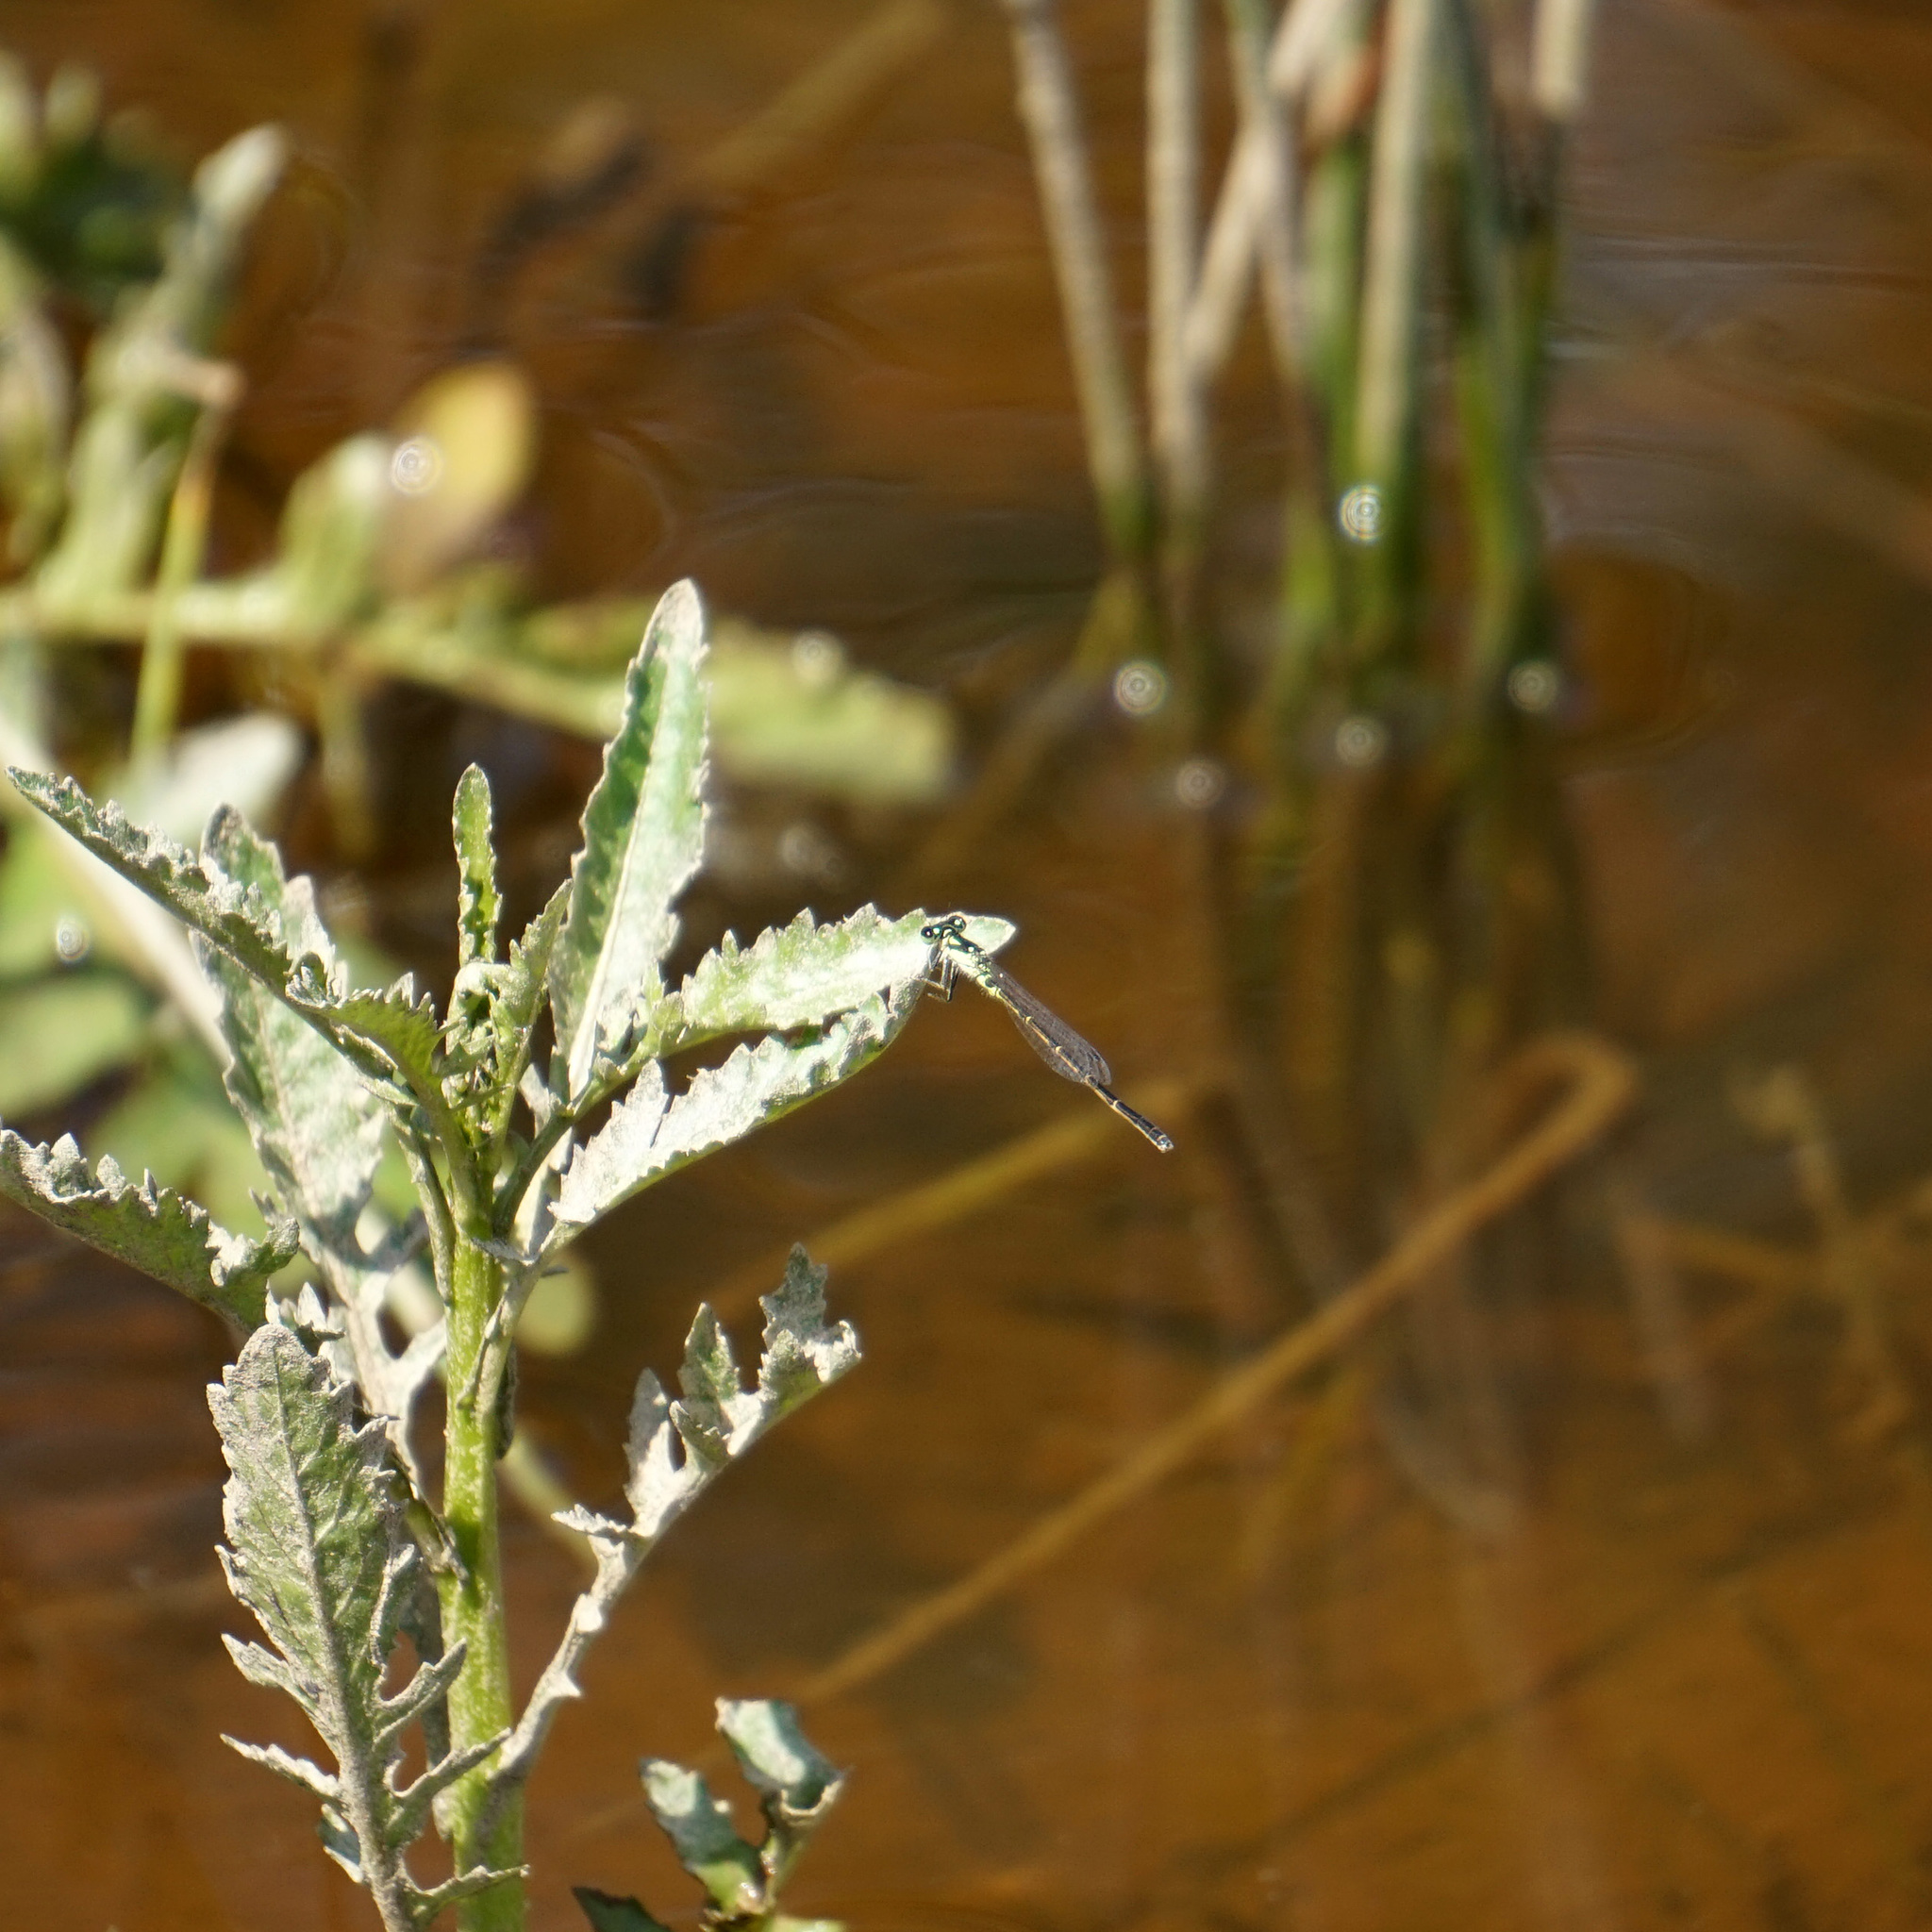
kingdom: Animalia
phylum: Arthropoda
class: Insecta
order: Odonata
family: Coenagrionidae
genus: Ischnura
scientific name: Ischnura posita
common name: Fragile forktail
